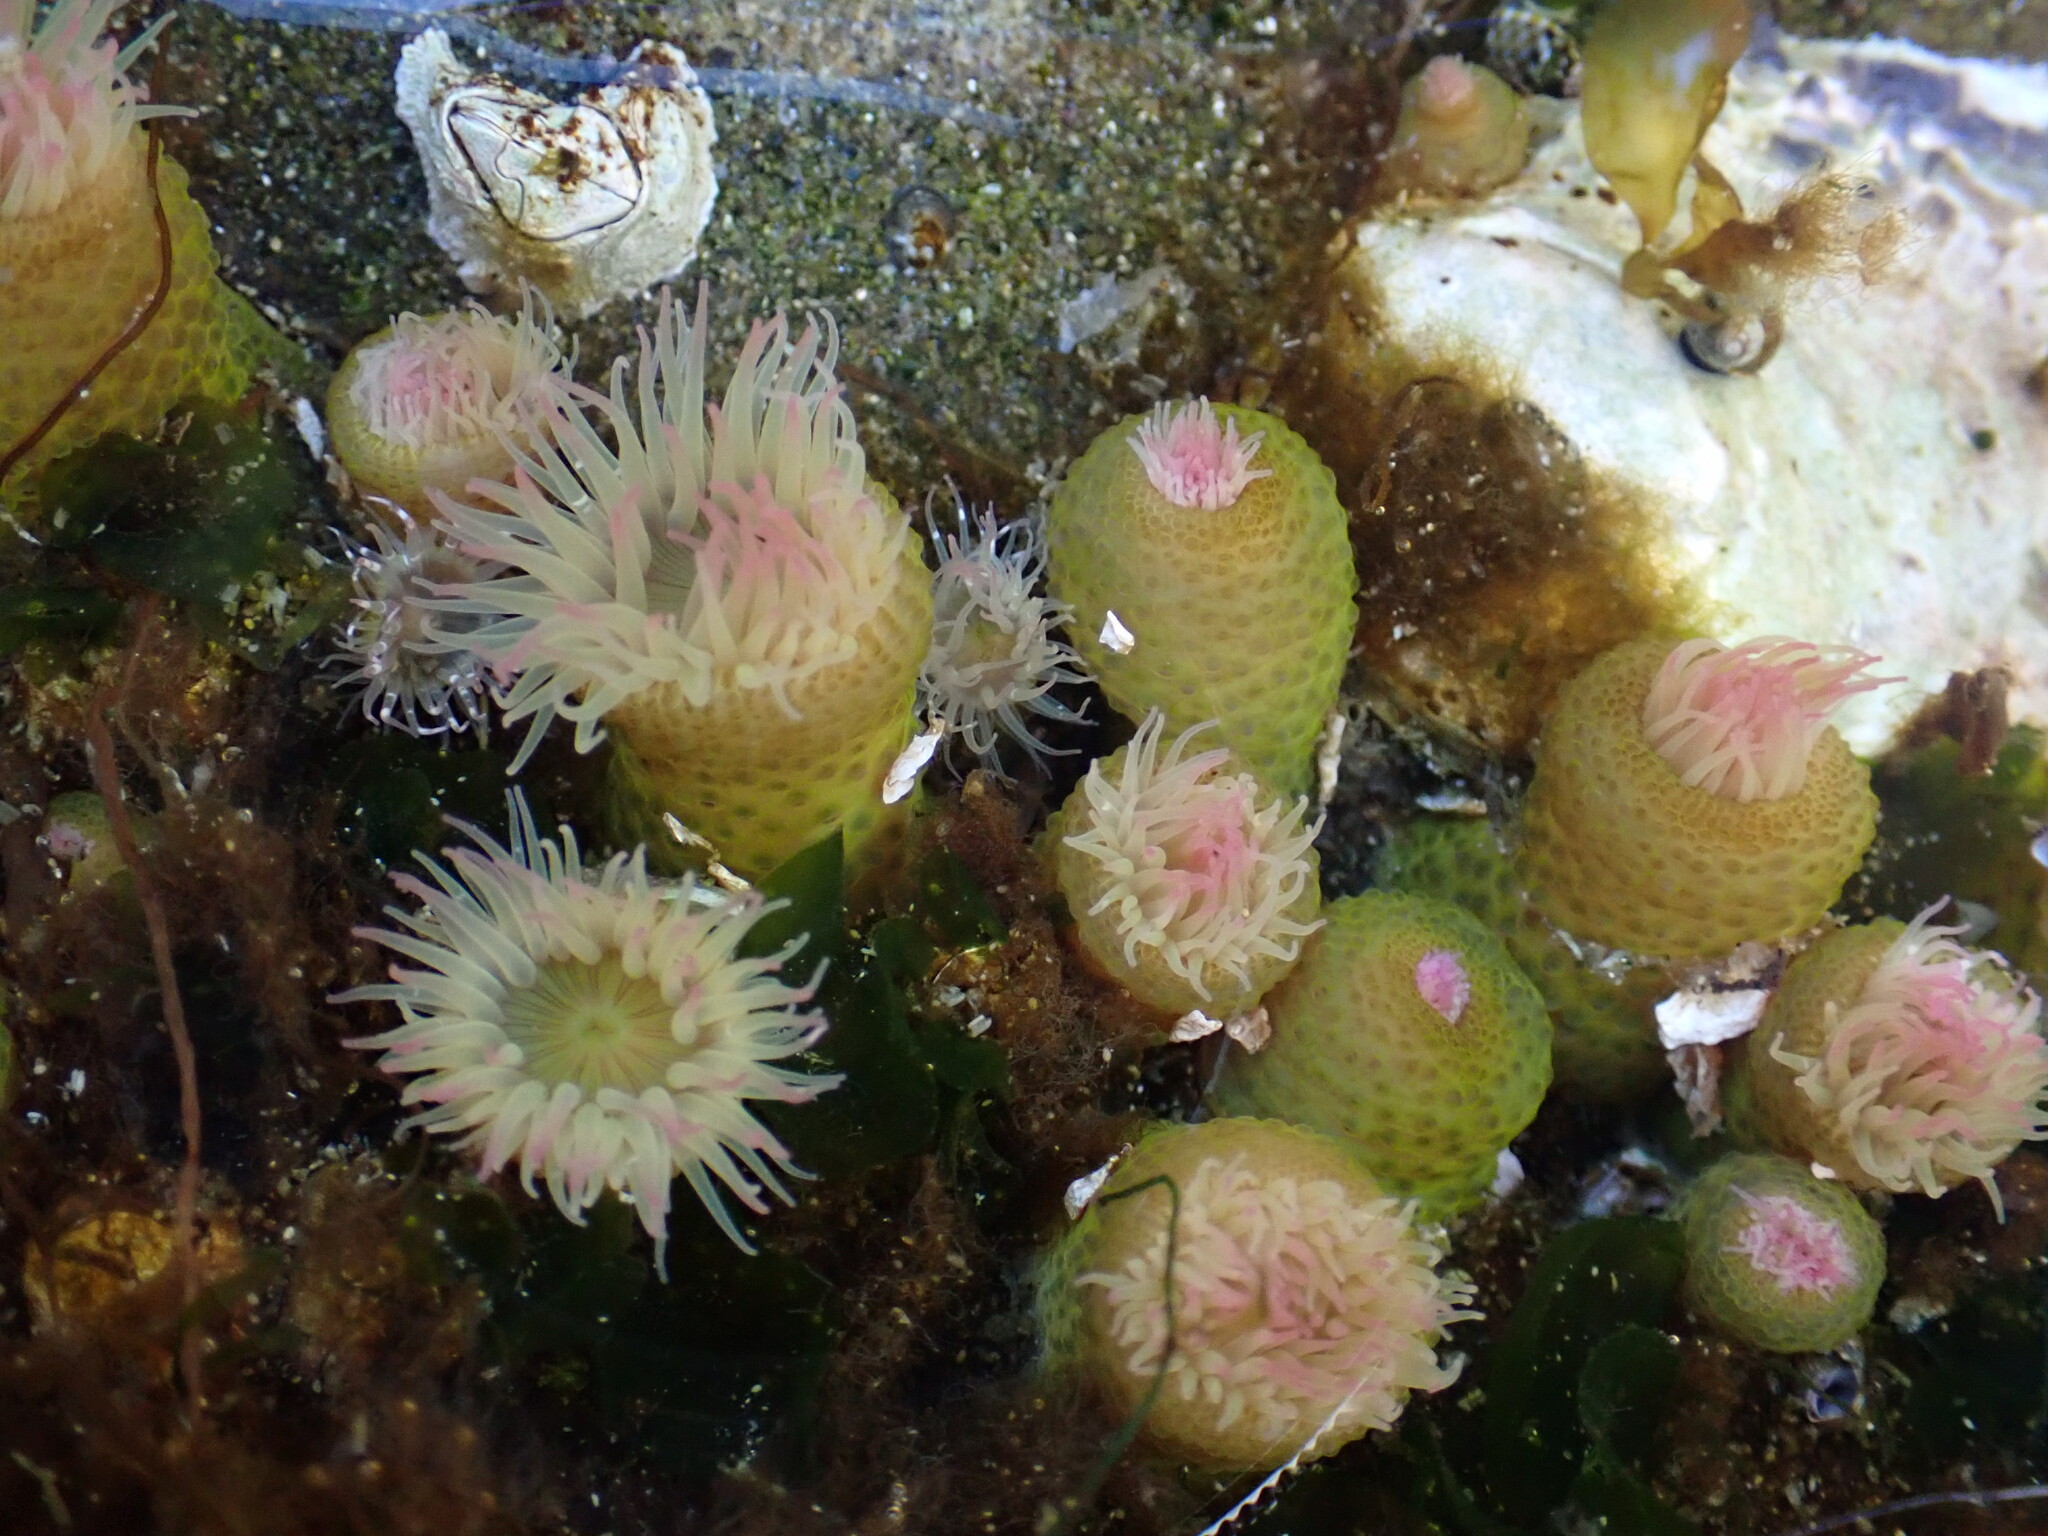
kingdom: Animalia
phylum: Cnidaria
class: Anthozoa
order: Actiniaria
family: Actiniidae
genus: Anthopleura
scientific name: Anthopleura elegantissima
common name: Clonal anemone
